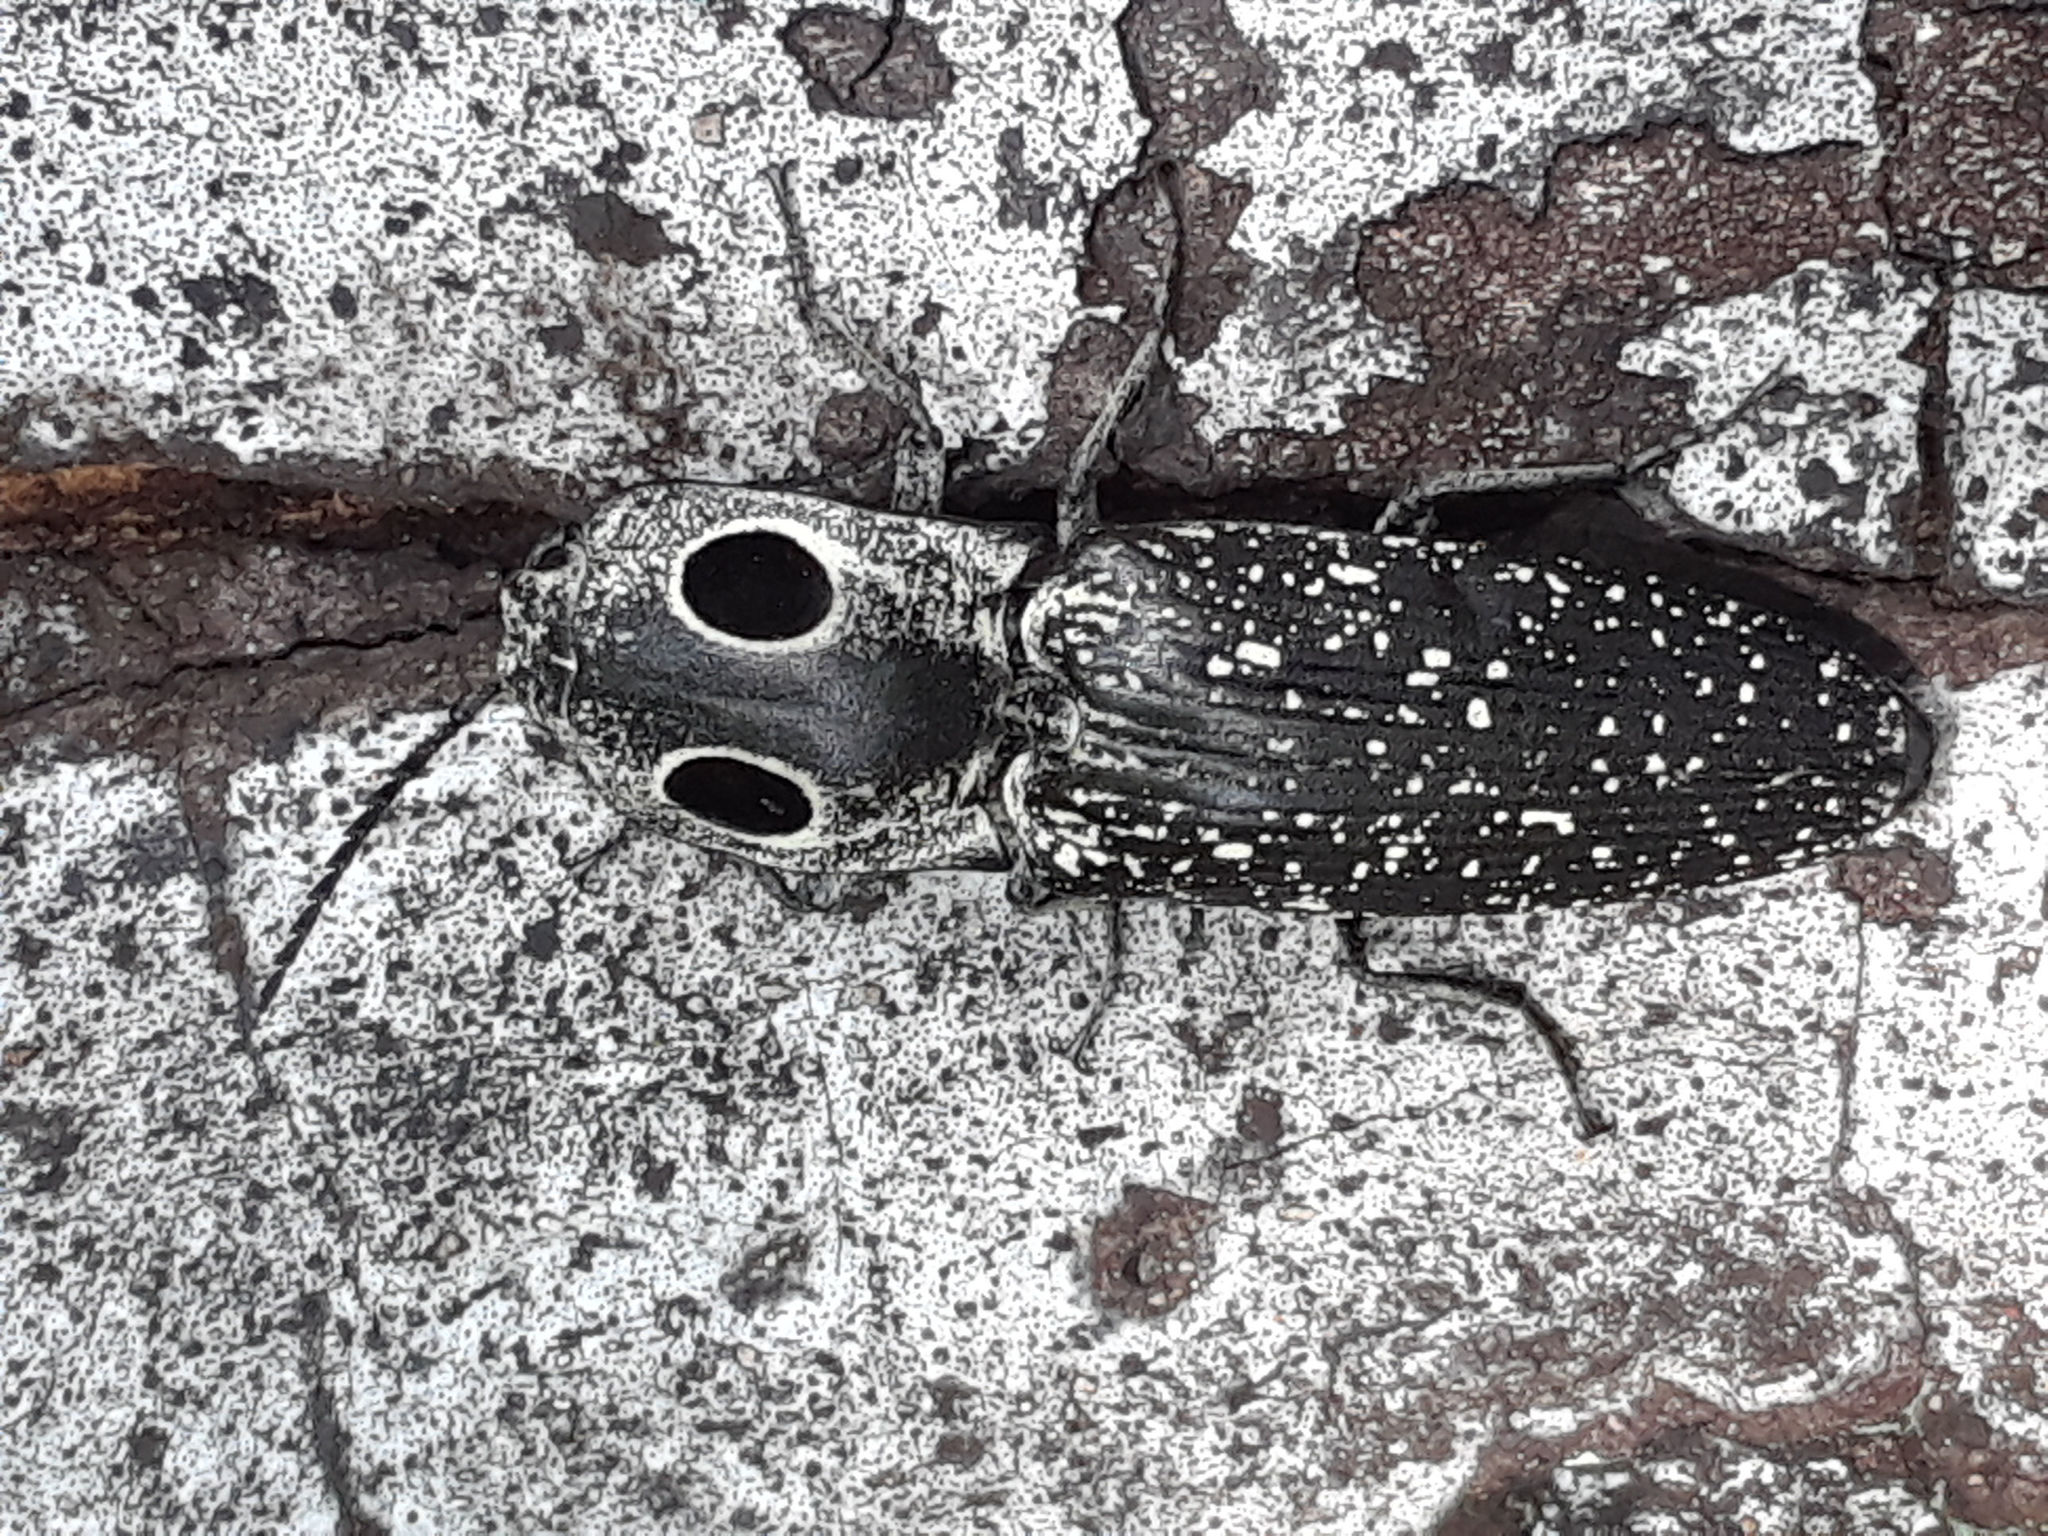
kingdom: Animalia
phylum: Arthropoda
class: Insecta
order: Coleoptera
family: Elateridae
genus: Alaus
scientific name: Alaus oculatus
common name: Eastern eyed click beetle
